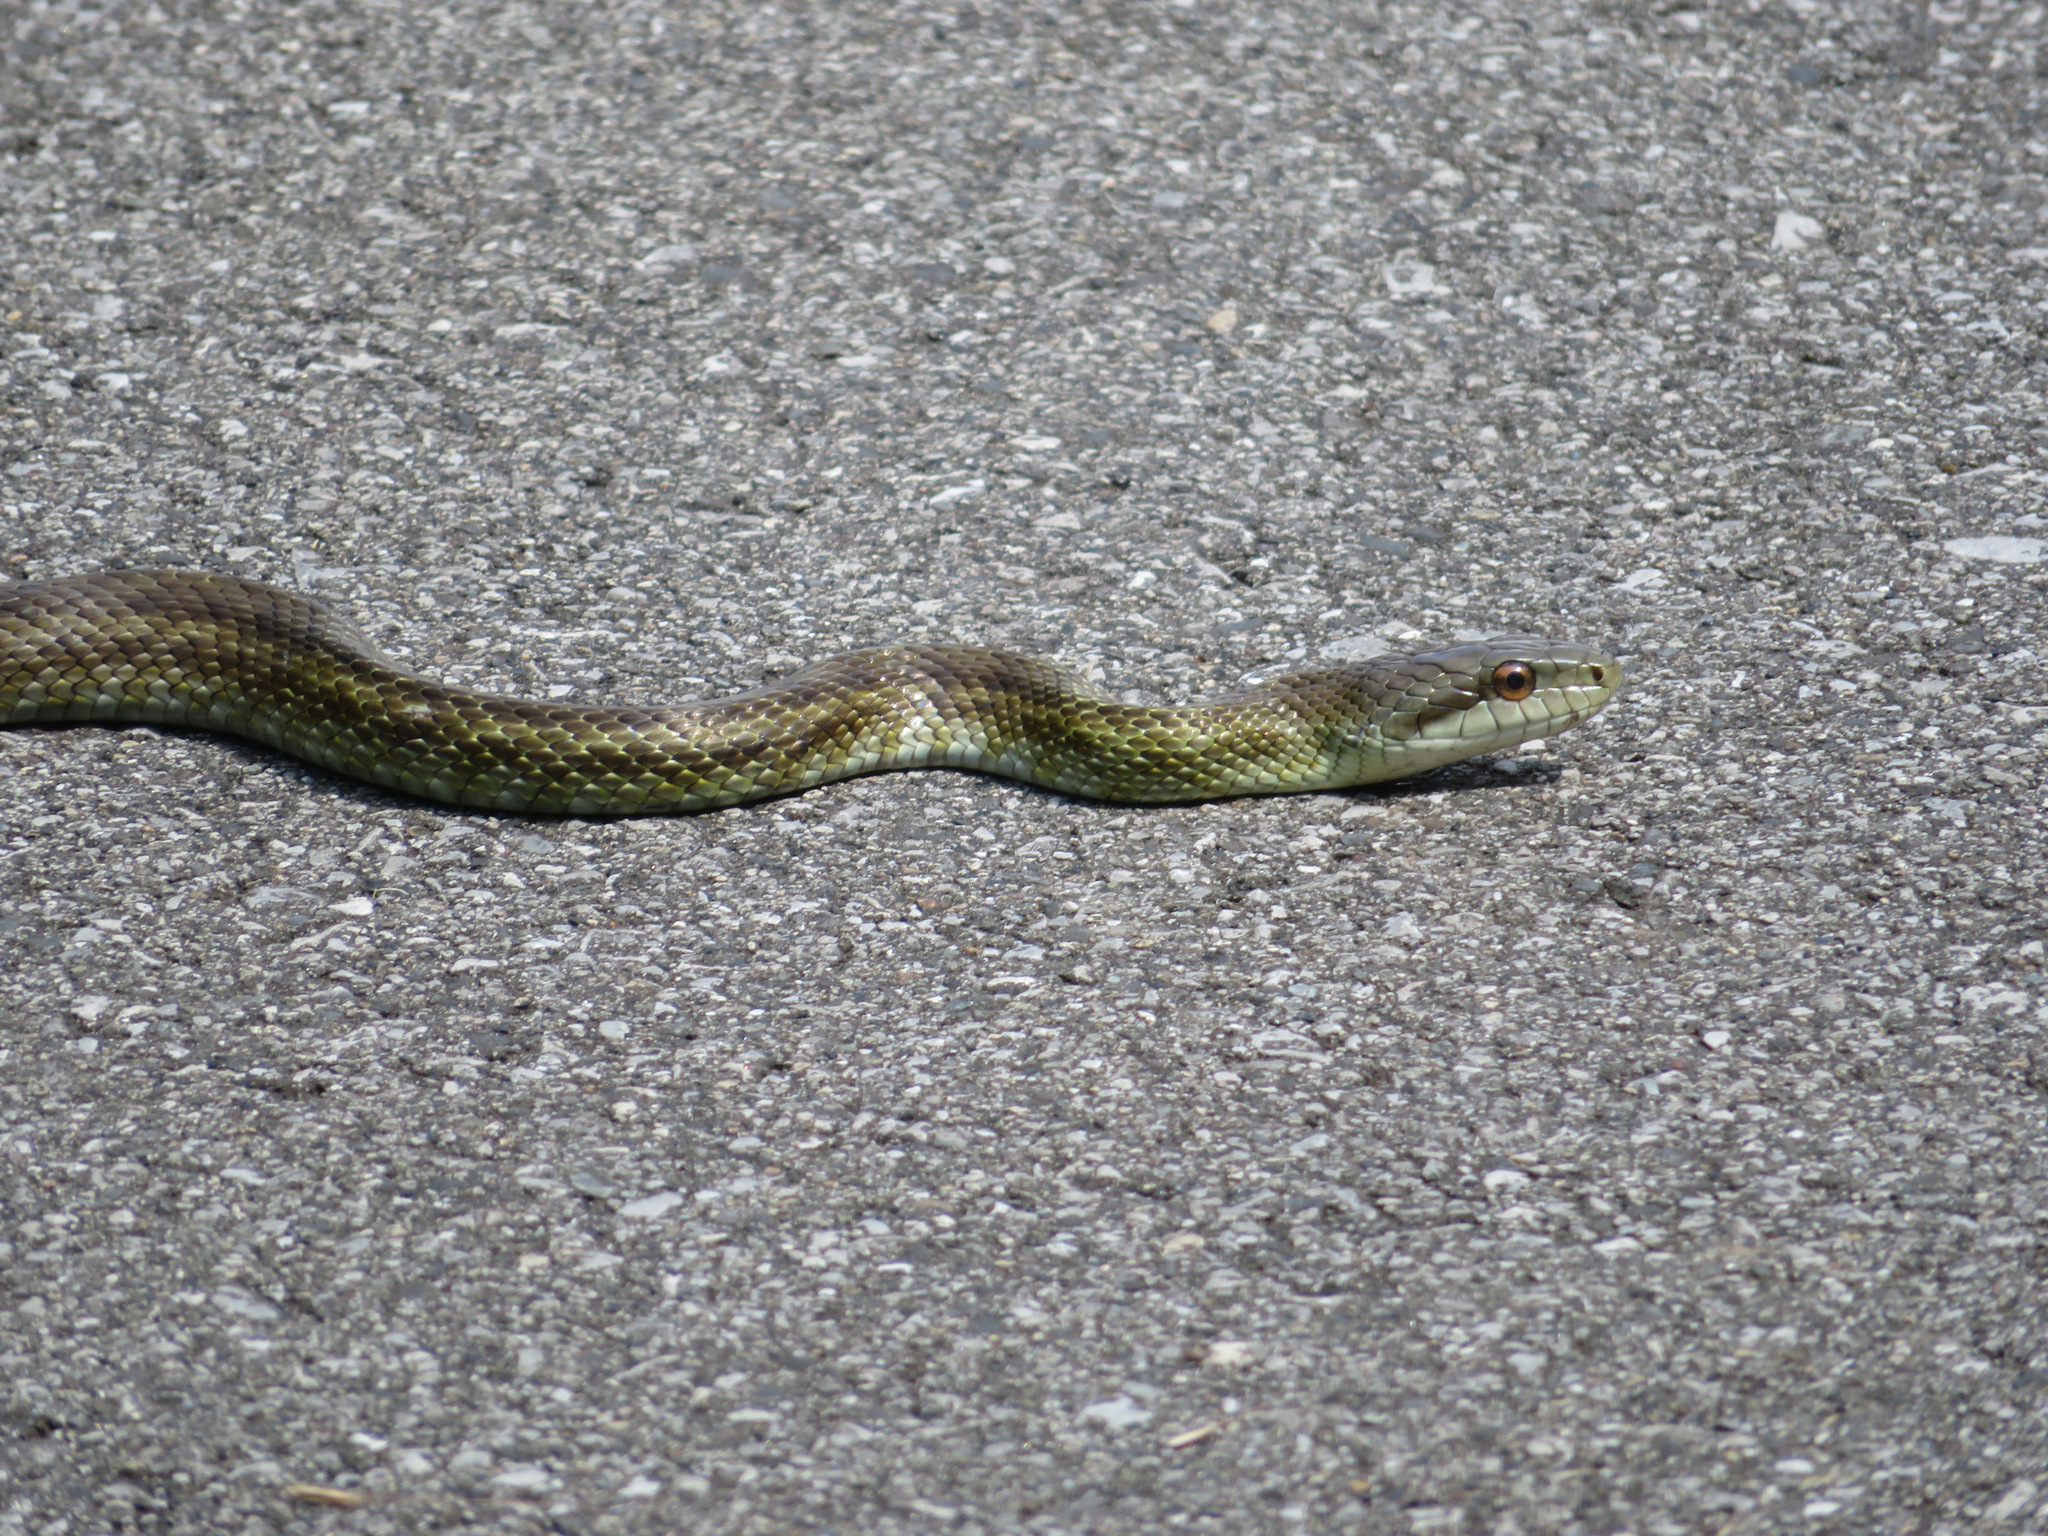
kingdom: Animalia
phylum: Chordata
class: Squamata
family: Colubridae
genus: Elaphe
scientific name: Elaphe climacophora
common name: Japanese ratsnake
